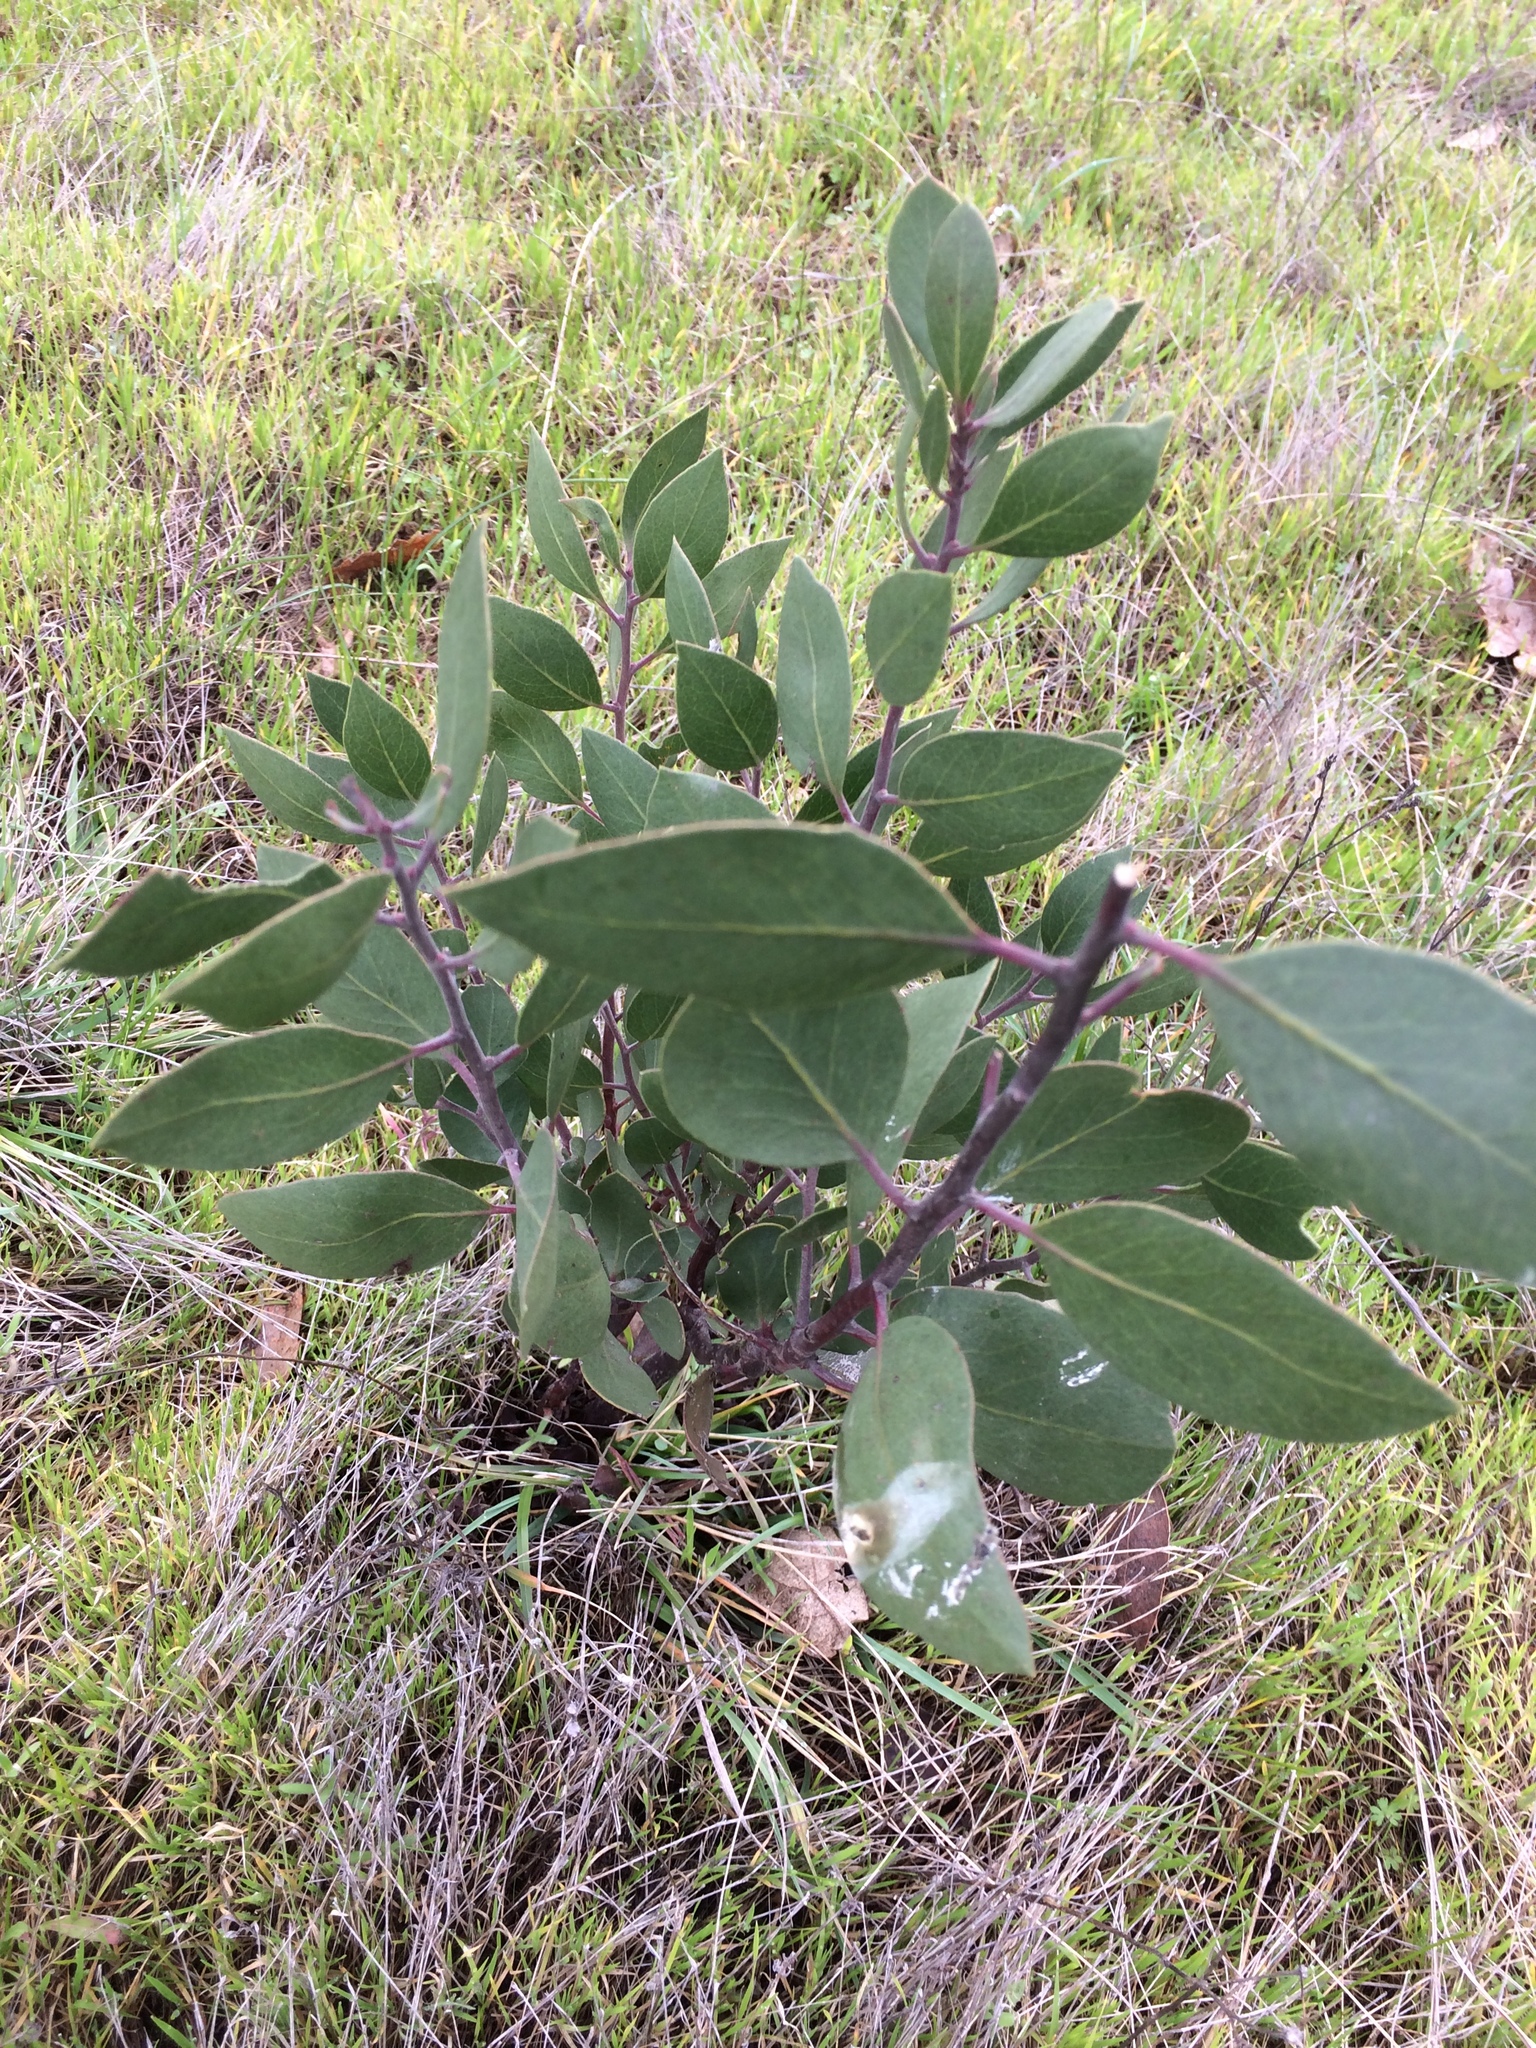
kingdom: Plantae
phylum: Tracheophyta
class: Magnoliopsida
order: Ericales
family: Ericaceae
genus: Arctostaphylos
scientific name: Arctostaphylos manzanita
